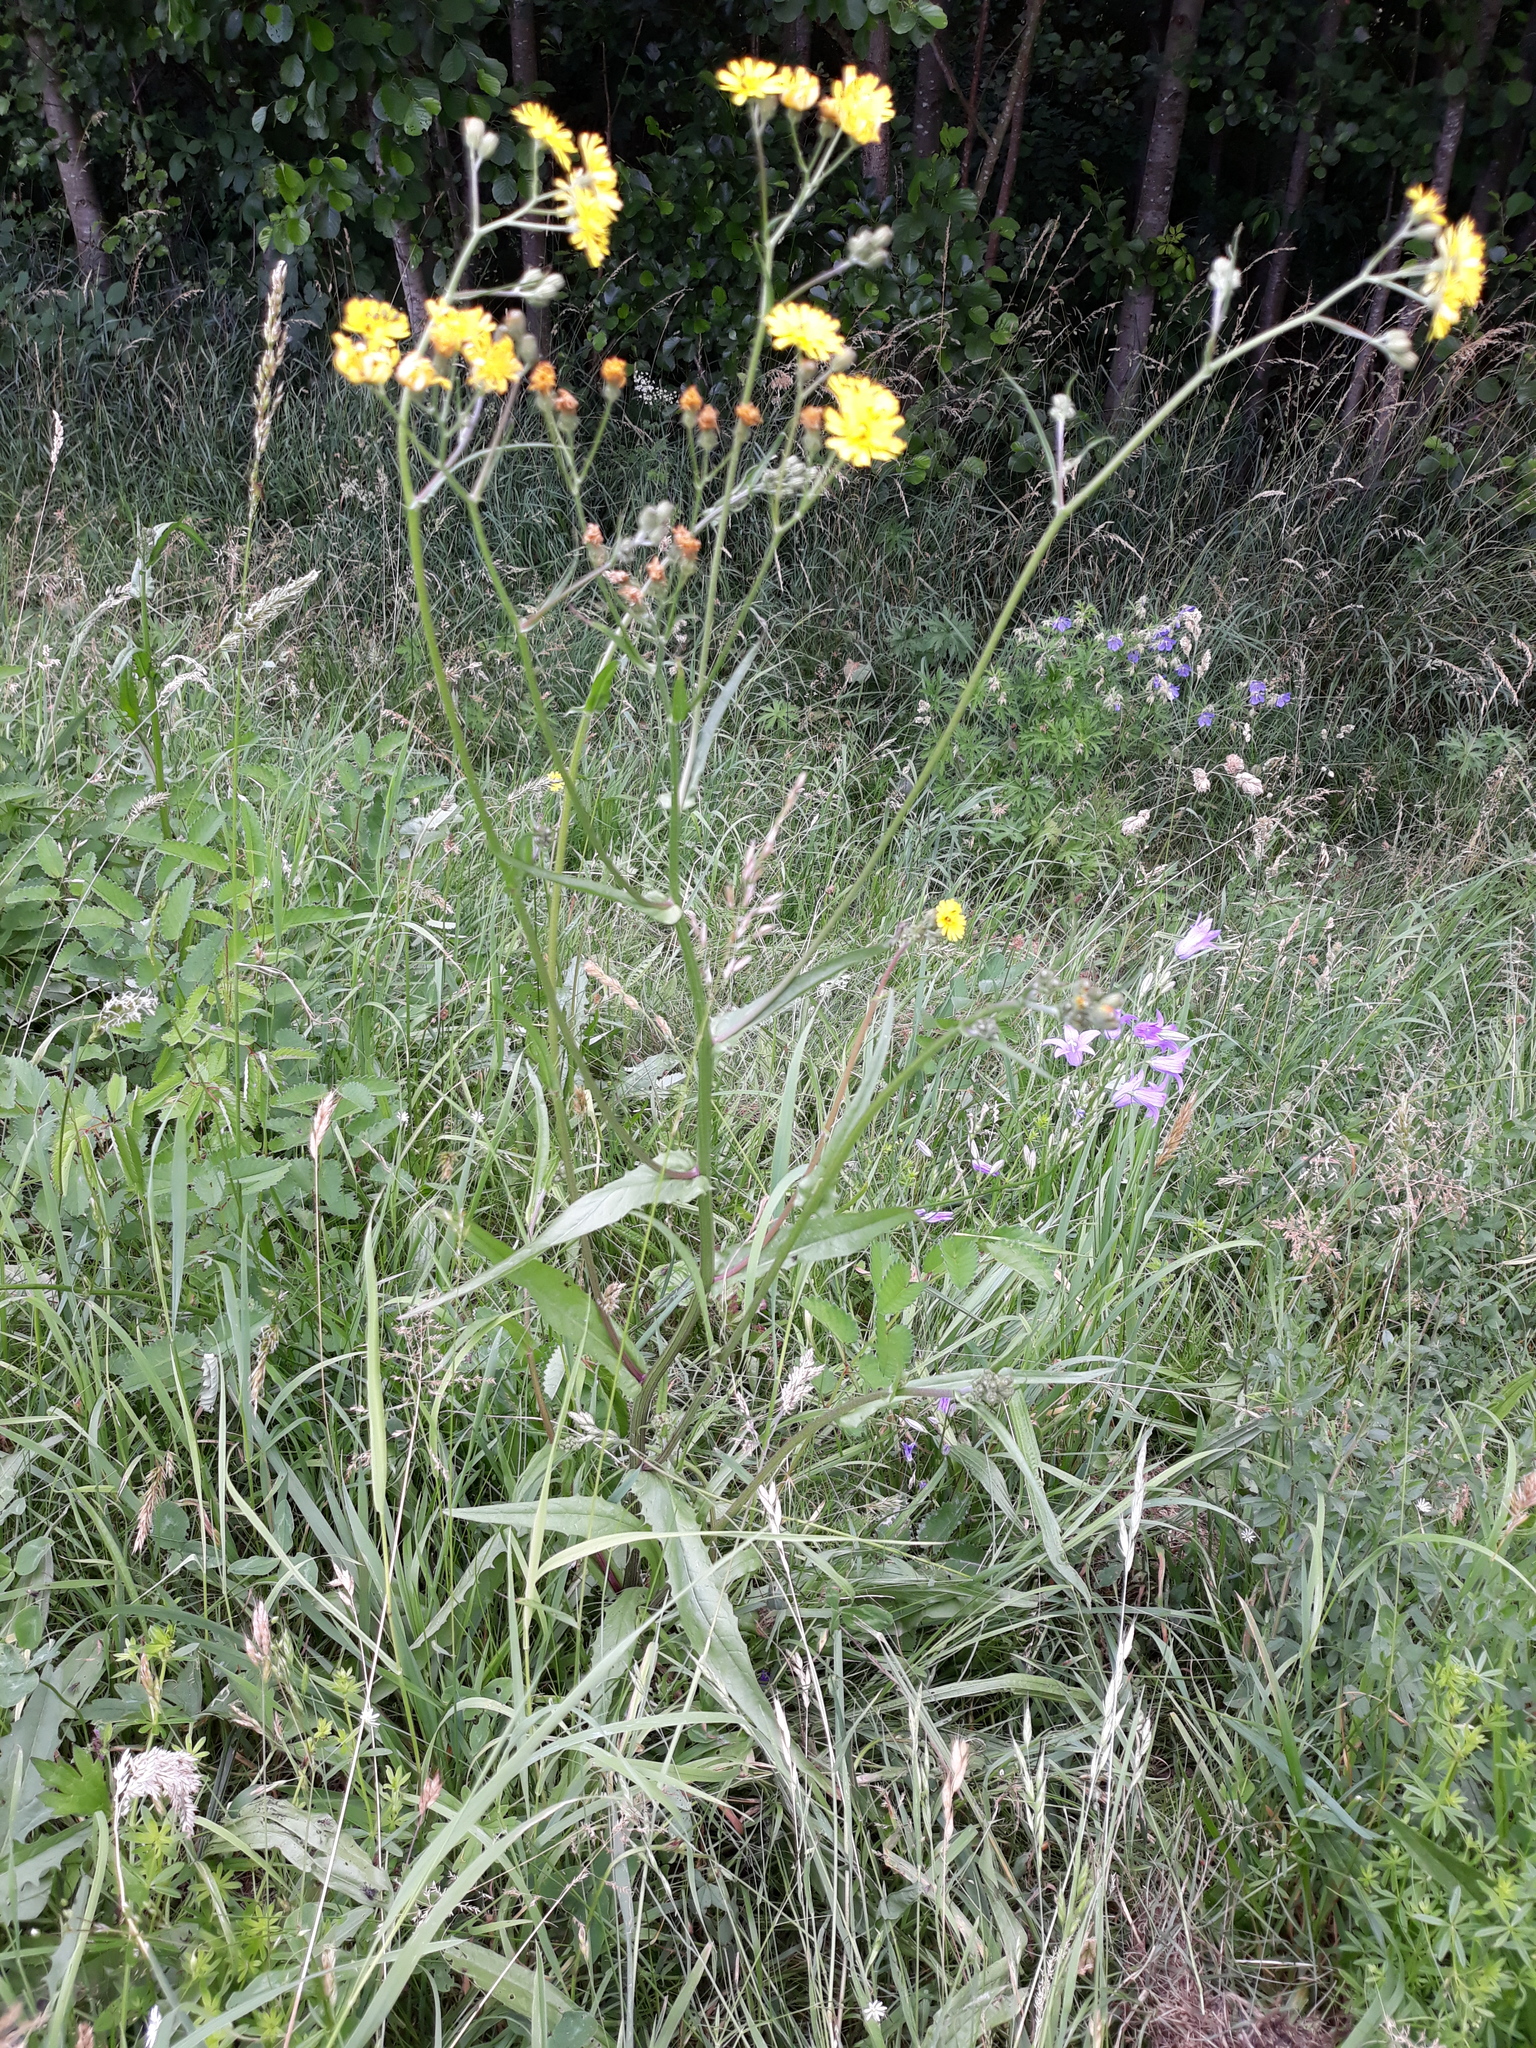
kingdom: Plantae
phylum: Tracheophyta
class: Magnoliopsida
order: Asterales
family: Asteraceae
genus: Crepis
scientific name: Crepis biennis
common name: Rough hawk's-beard
